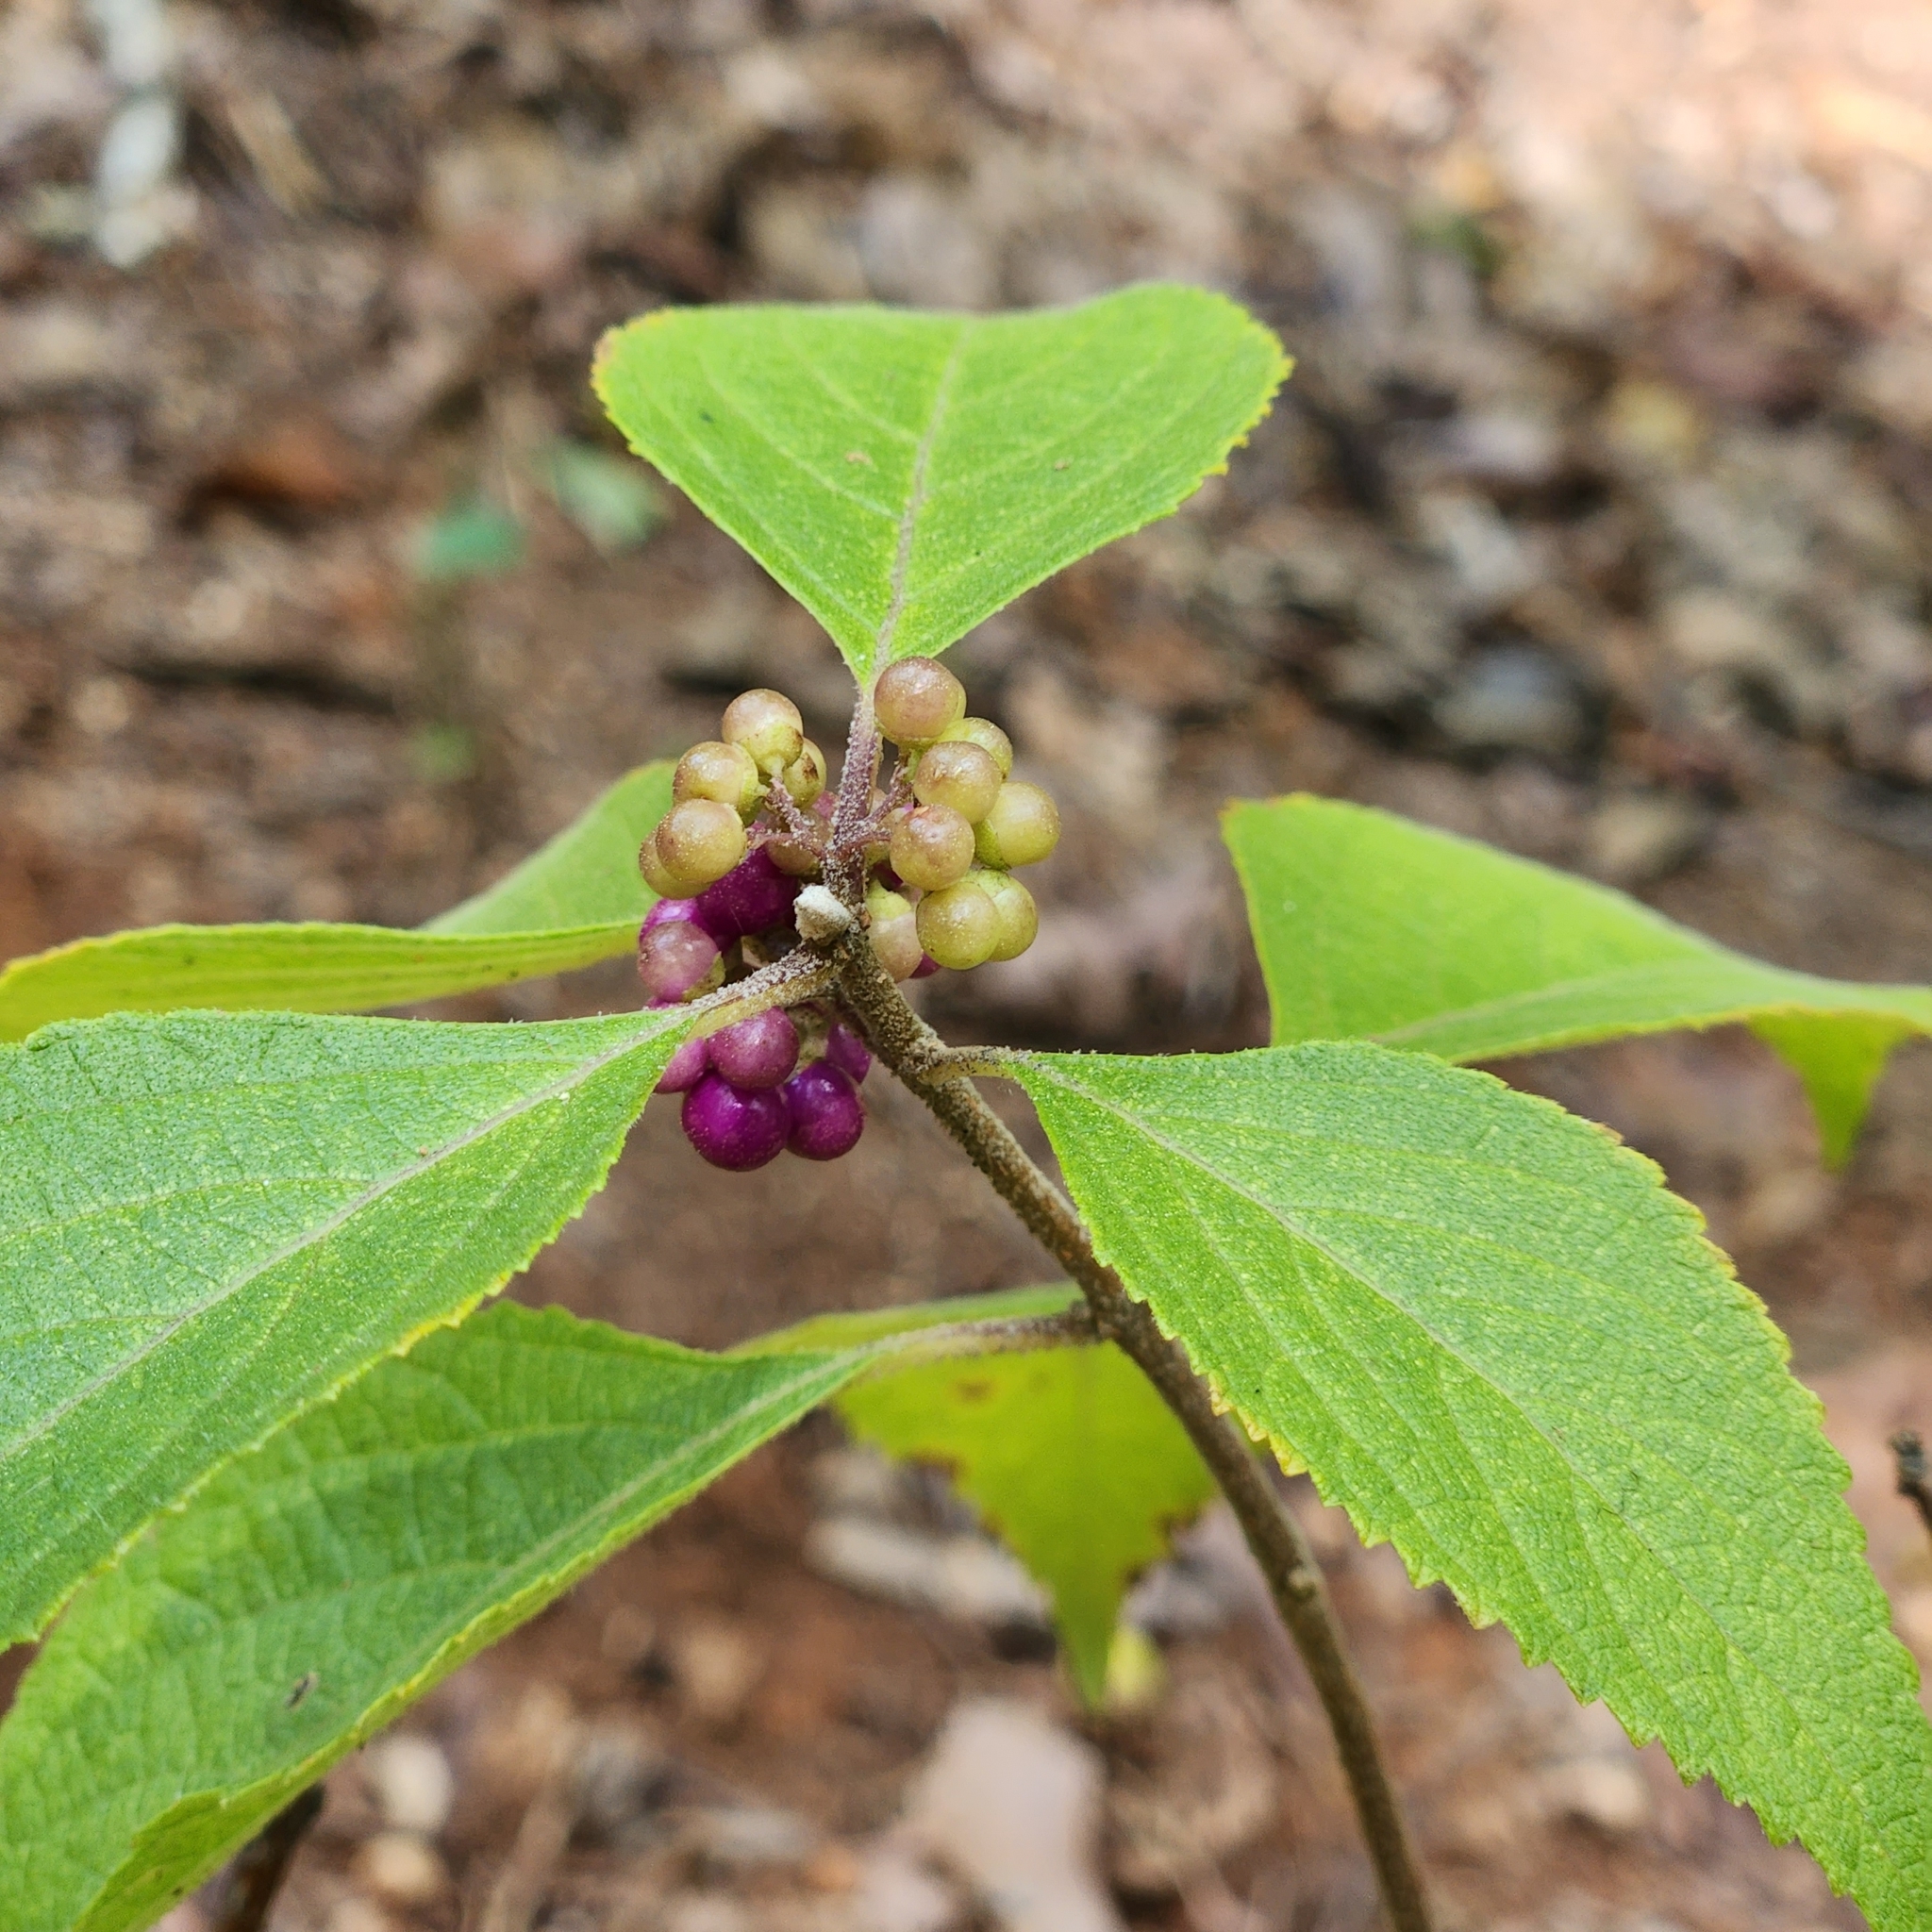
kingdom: Plantae
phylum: Tracheophyta
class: Magnoliopsida
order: Lamiales
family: Lamiaceae
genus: Callicarpa
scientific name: Callicarpa americana
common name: American beautyberry
